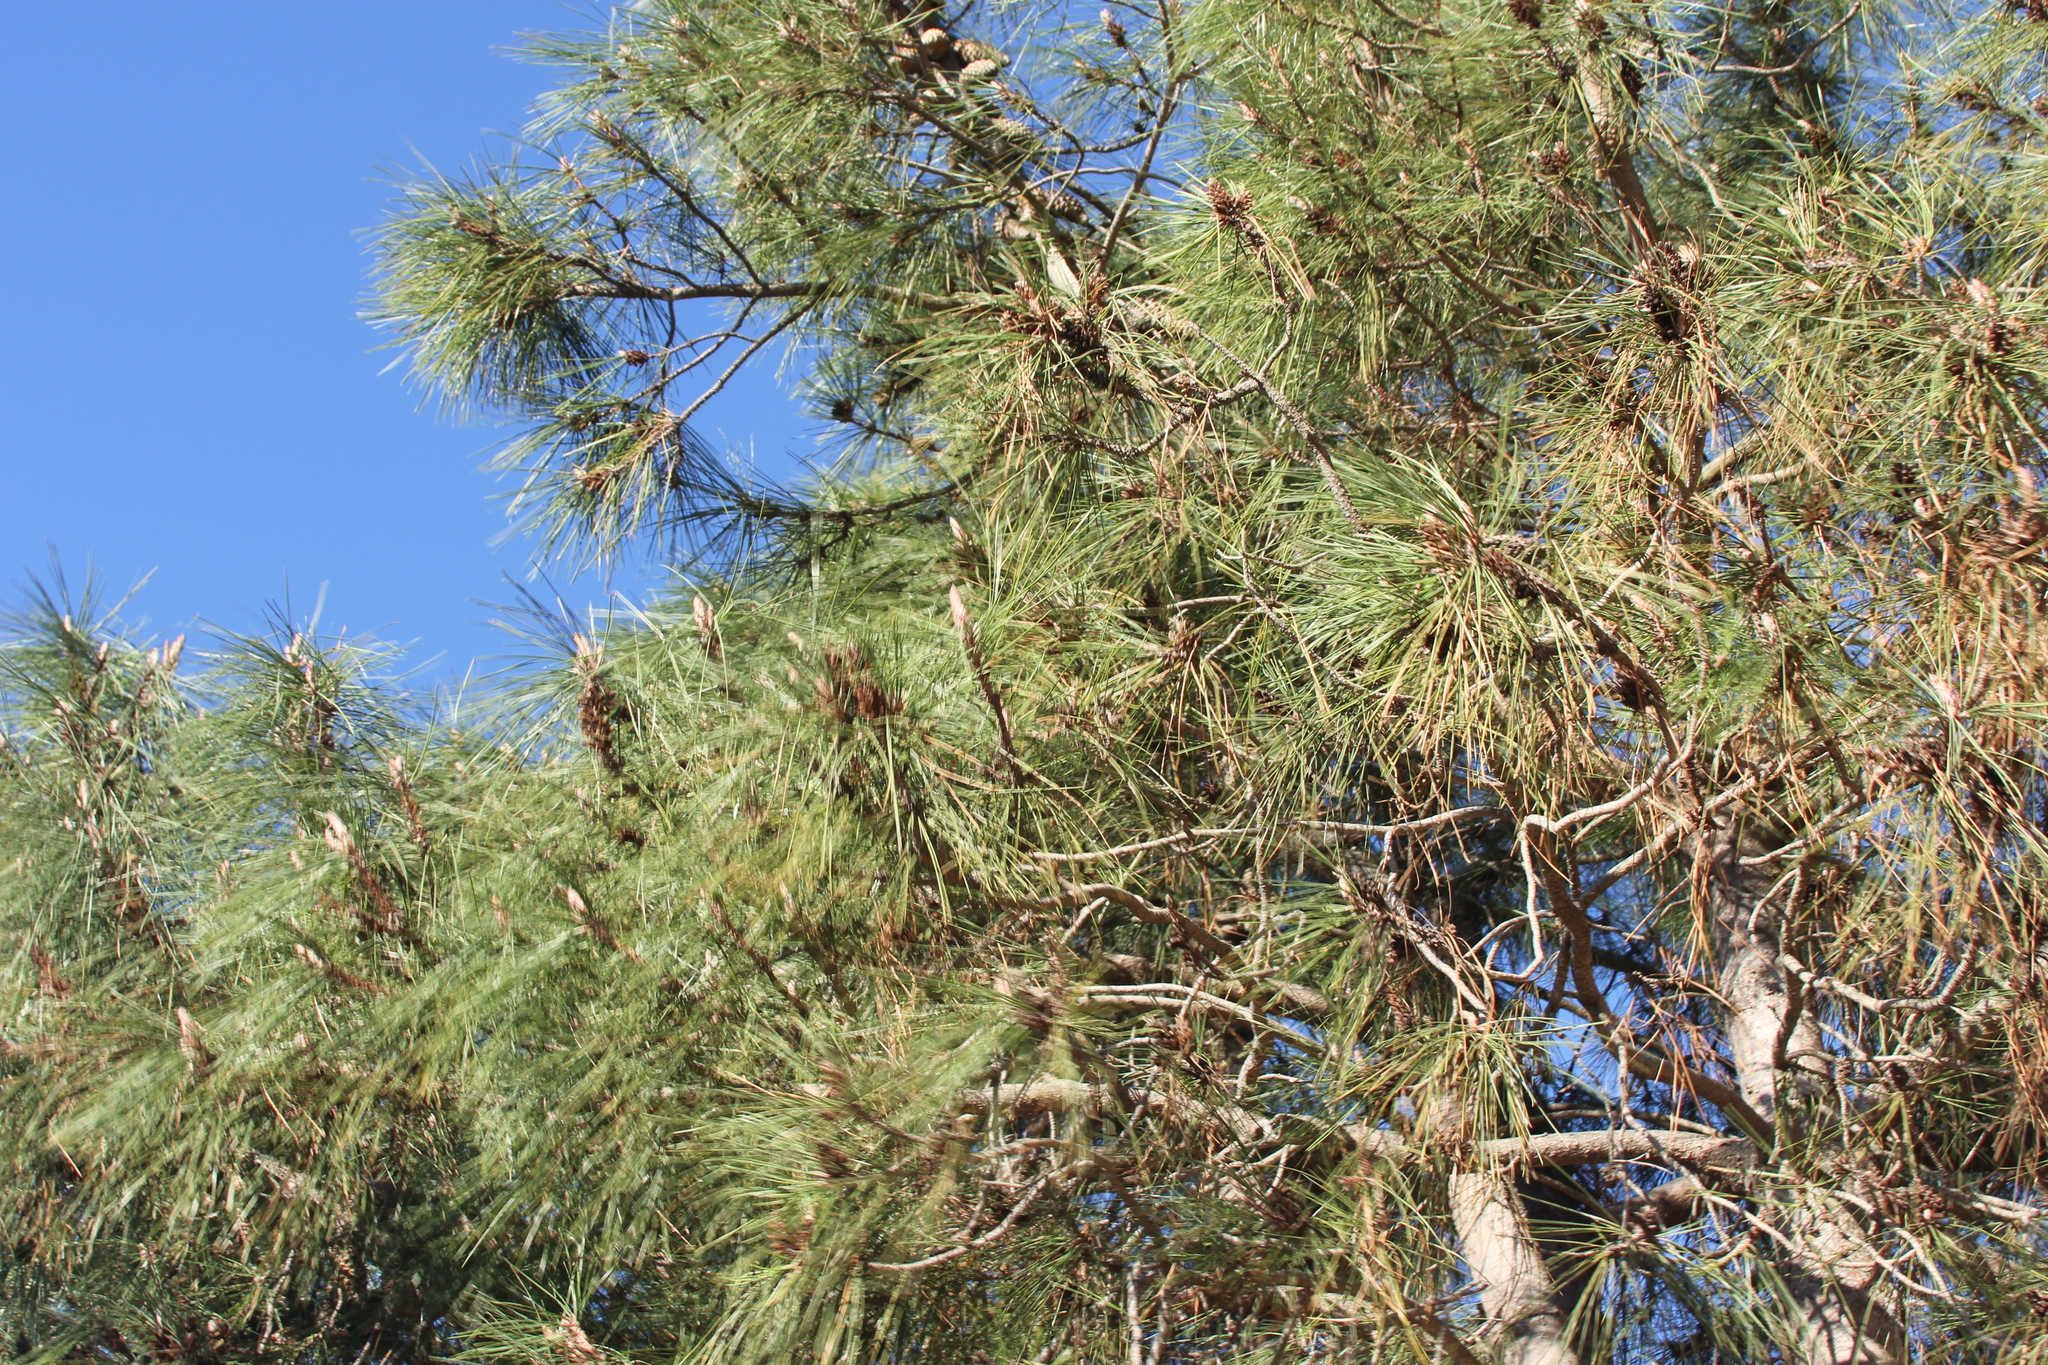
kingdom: Plantae
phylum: Tracheophyta
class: Pinopsida
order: Pinales
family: Pinaceae
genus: Pinus
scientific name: Pinus attenuata
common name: Knobcone pine
